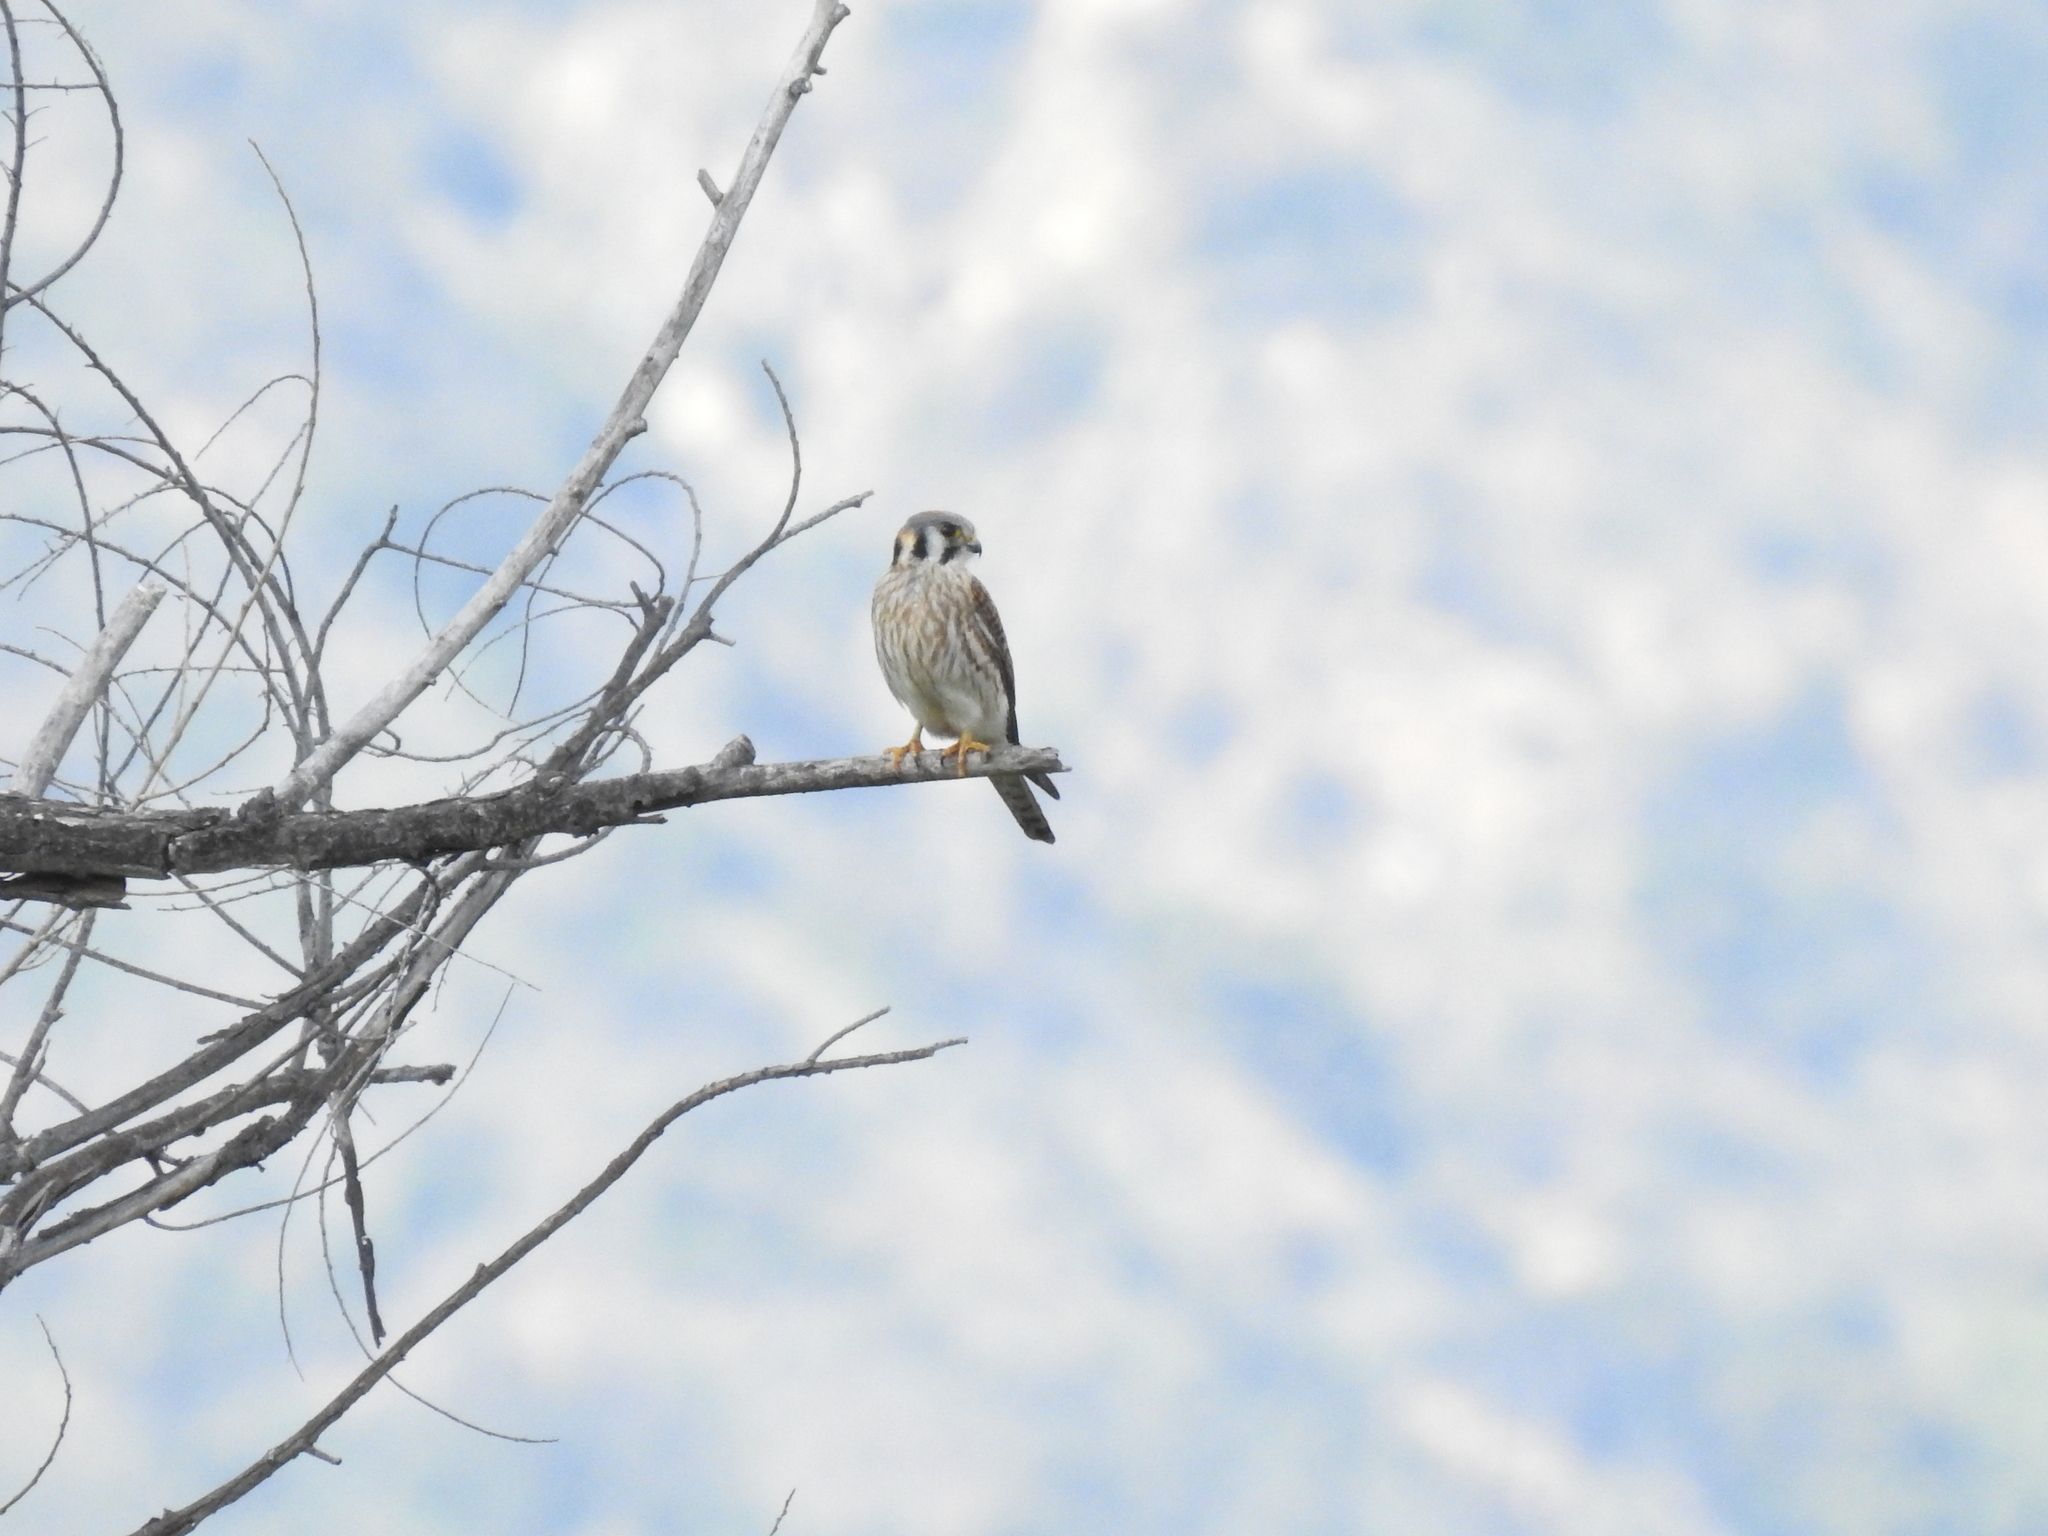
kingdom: Animalia
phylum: Chordata
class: Aves
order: Falconiformes
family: Falconidae
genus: Falco
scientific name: Falco sparverius
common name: American kestrel
